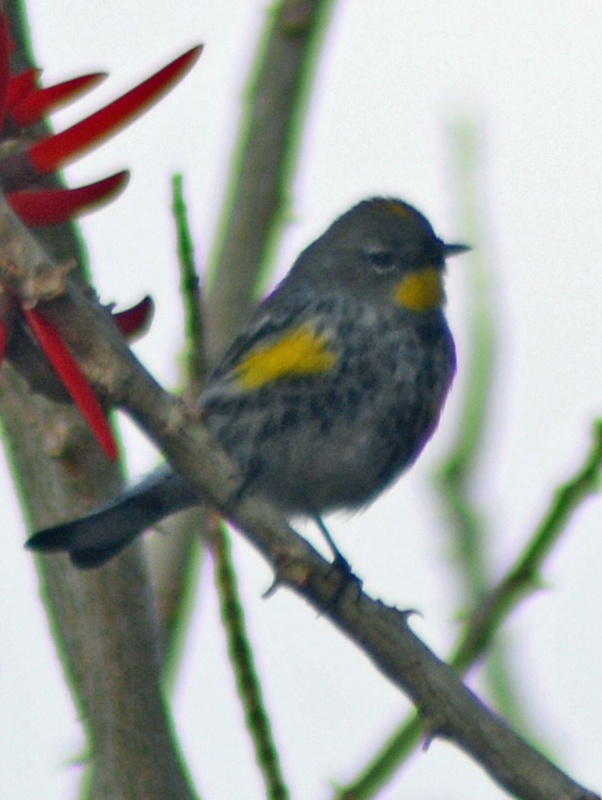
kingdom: Animalia
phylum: Chordata
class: Aves
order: Passeriformes
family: Parulidae
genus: Setophaga
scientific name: Setophaga auduboni
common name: Audubon's warbler
